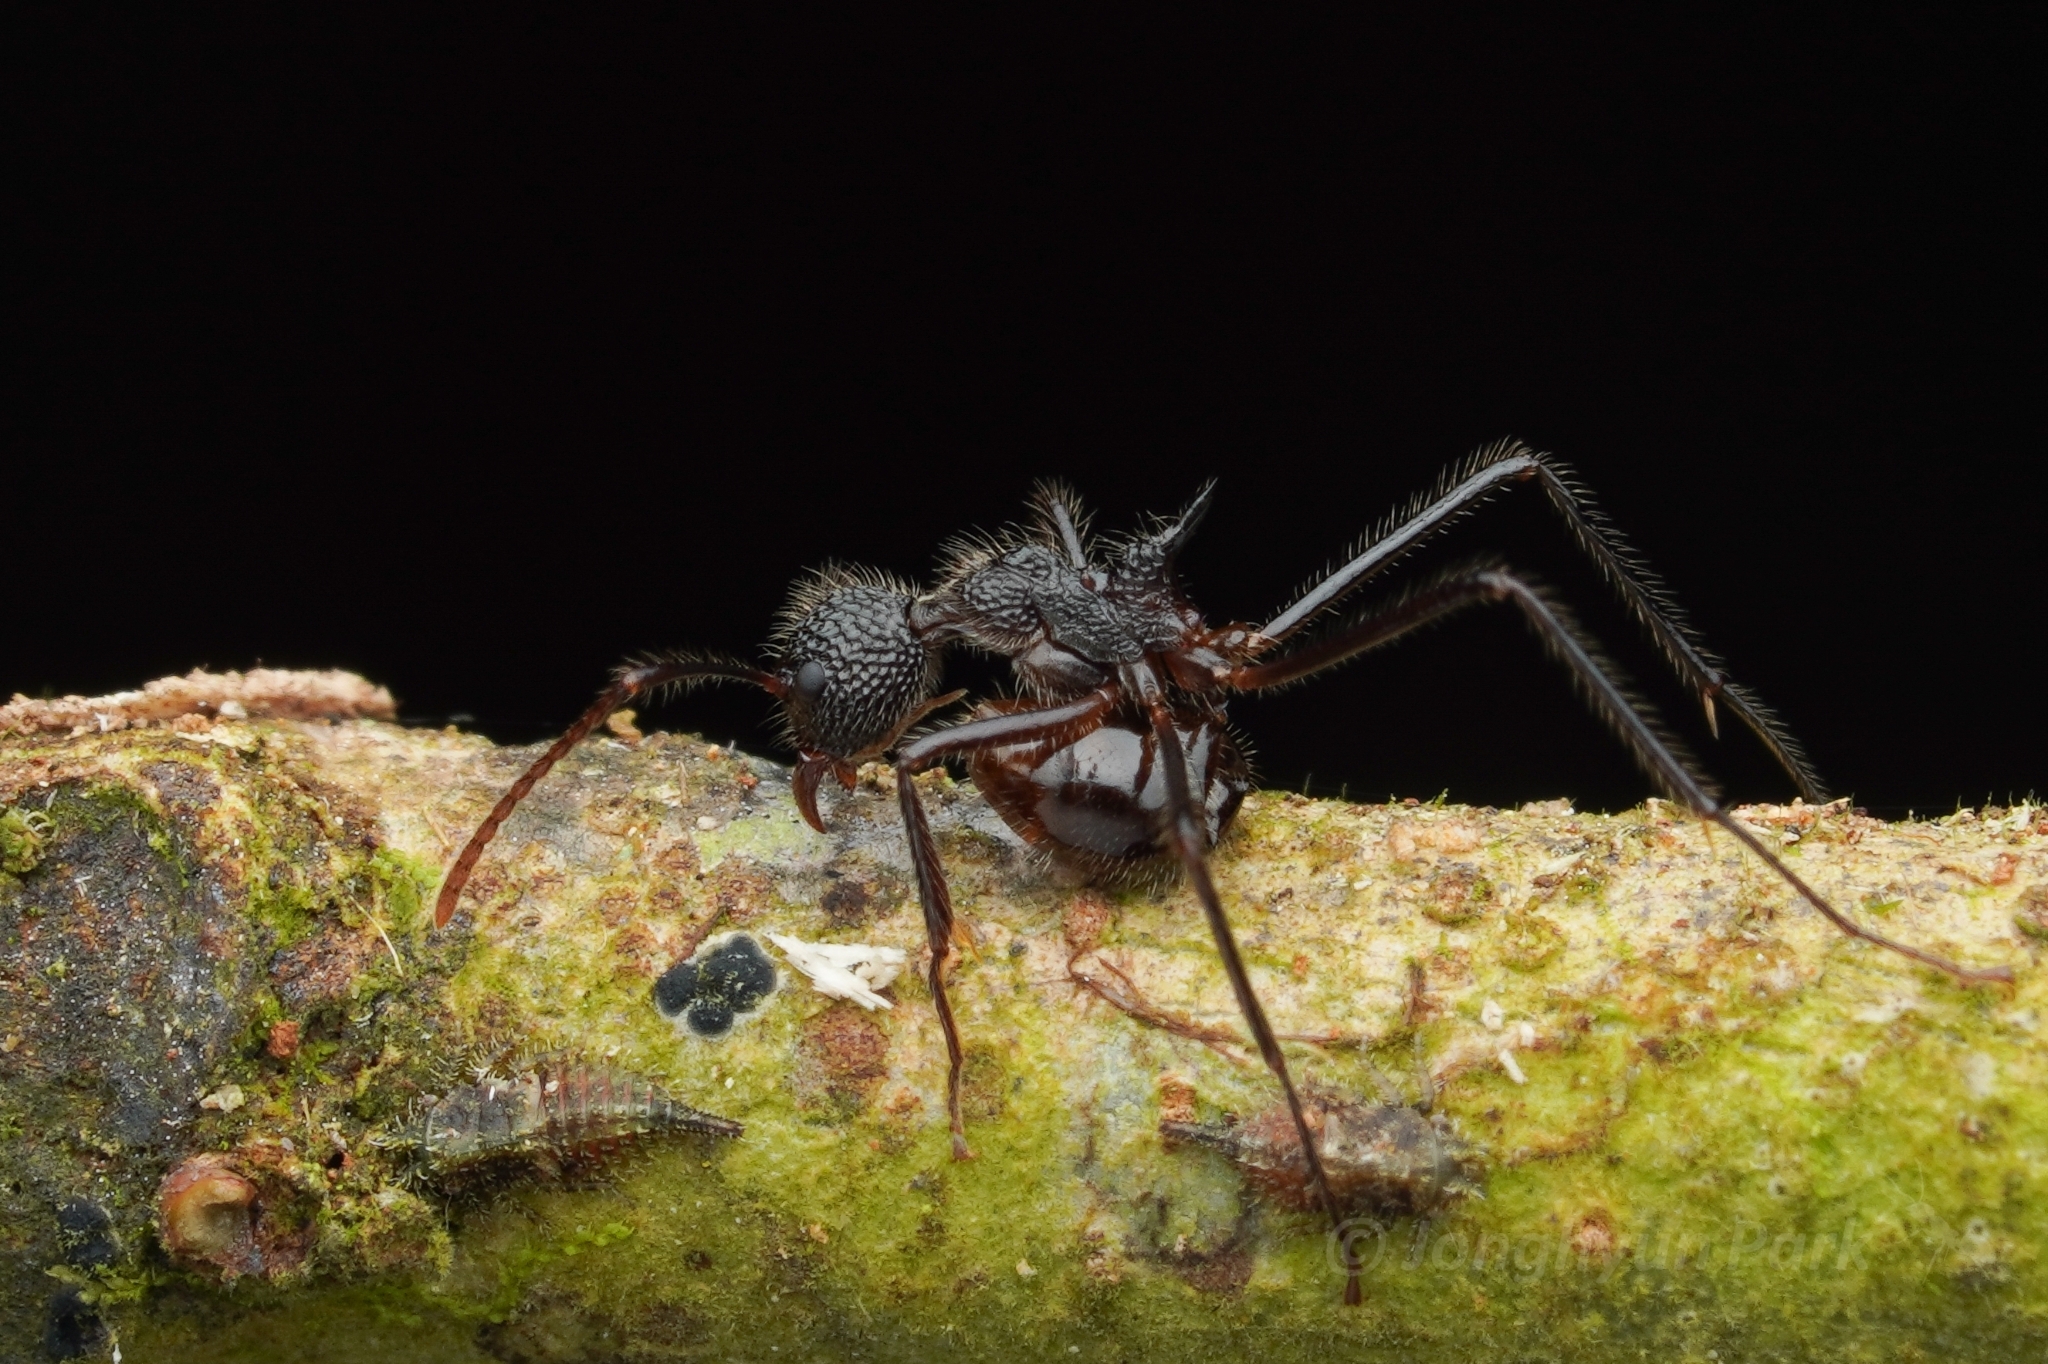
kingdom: Animalia
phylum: Arthropoda
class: Insecta
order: Hymenoptera
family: Formicidae
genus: Dolichoderus
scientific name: Dolichoderus indrapurensis
